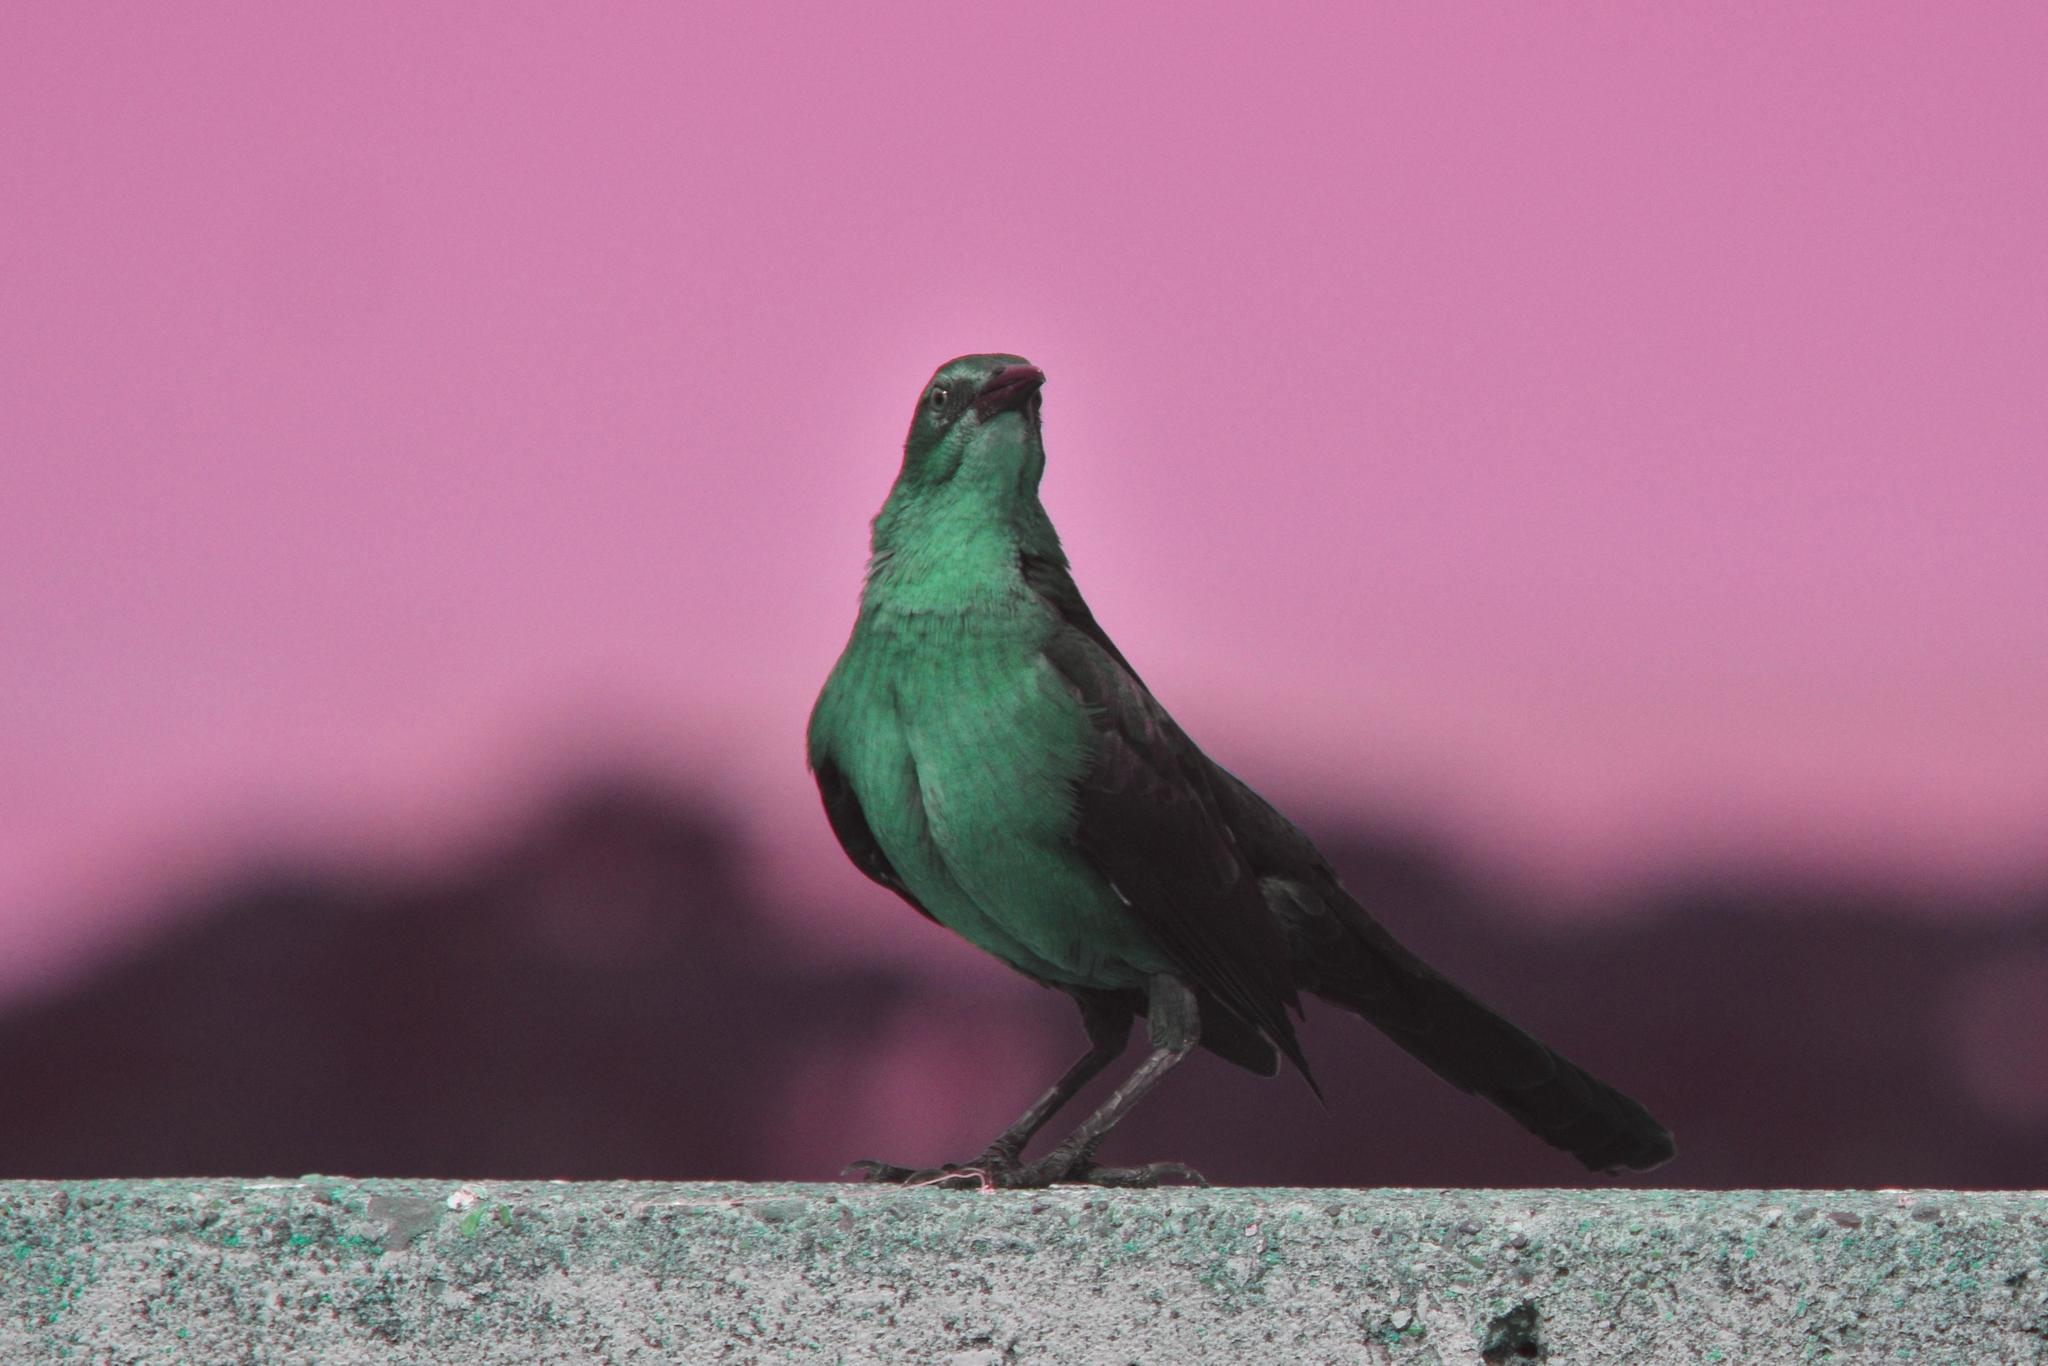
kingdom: Animalia
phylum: Chordata
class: Aves
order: Passeriformes
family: Icteridae
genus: Quiscalus
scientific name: Quiscalus mexicanus
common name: Great-tailed grackle
